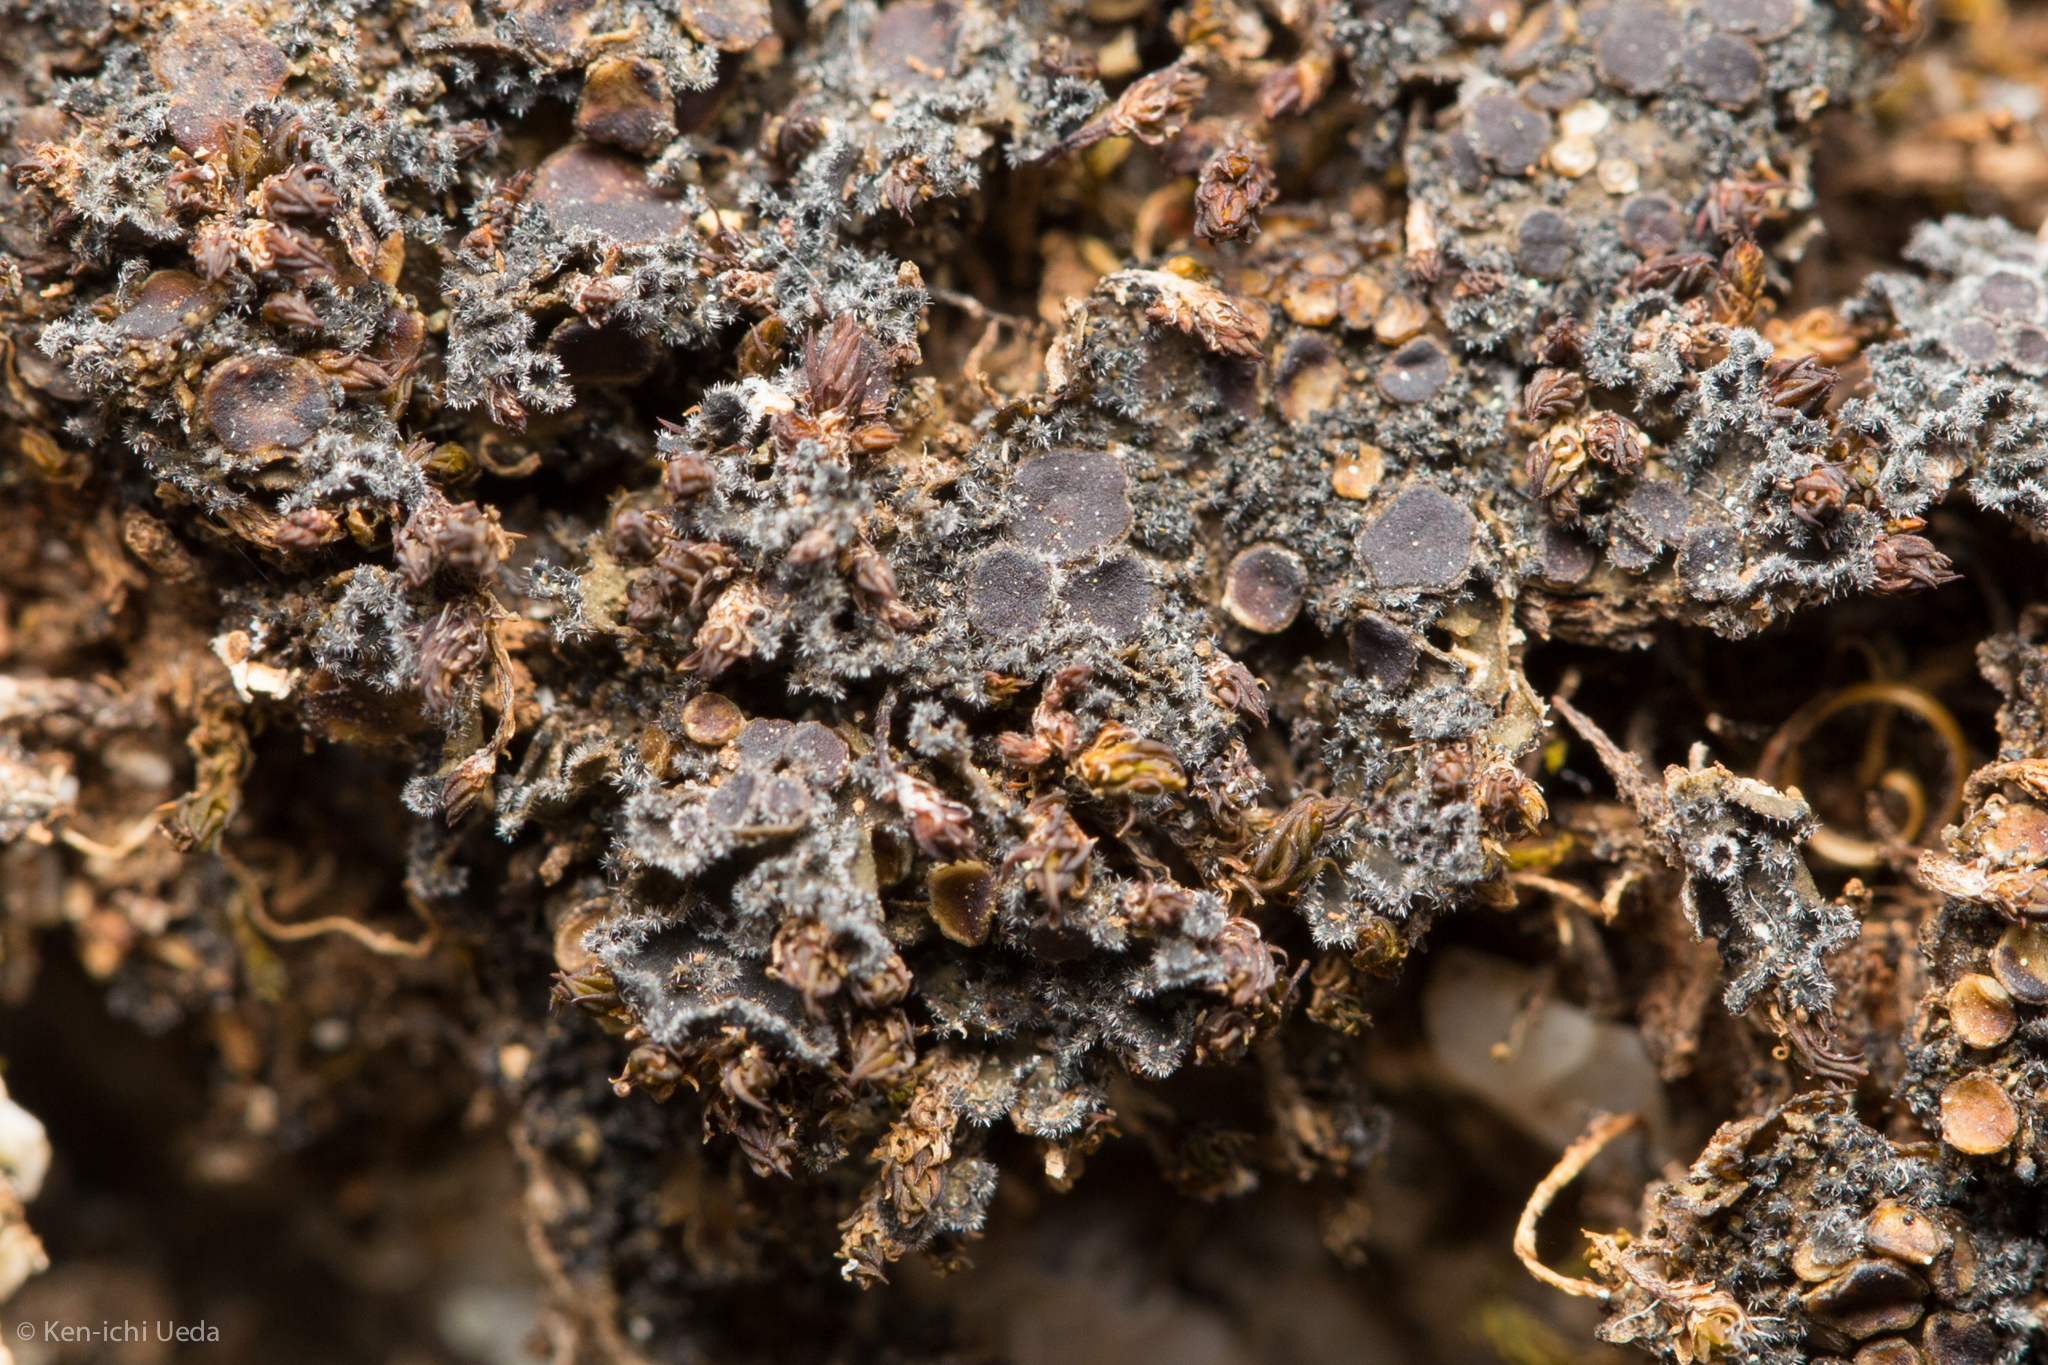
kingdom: Fungi
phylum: Ascomycota
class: Lecanoromycetes
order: Peltigerales
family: Massalongiaceae
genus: Leptochidium
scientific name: Leptochidium albociliatum
